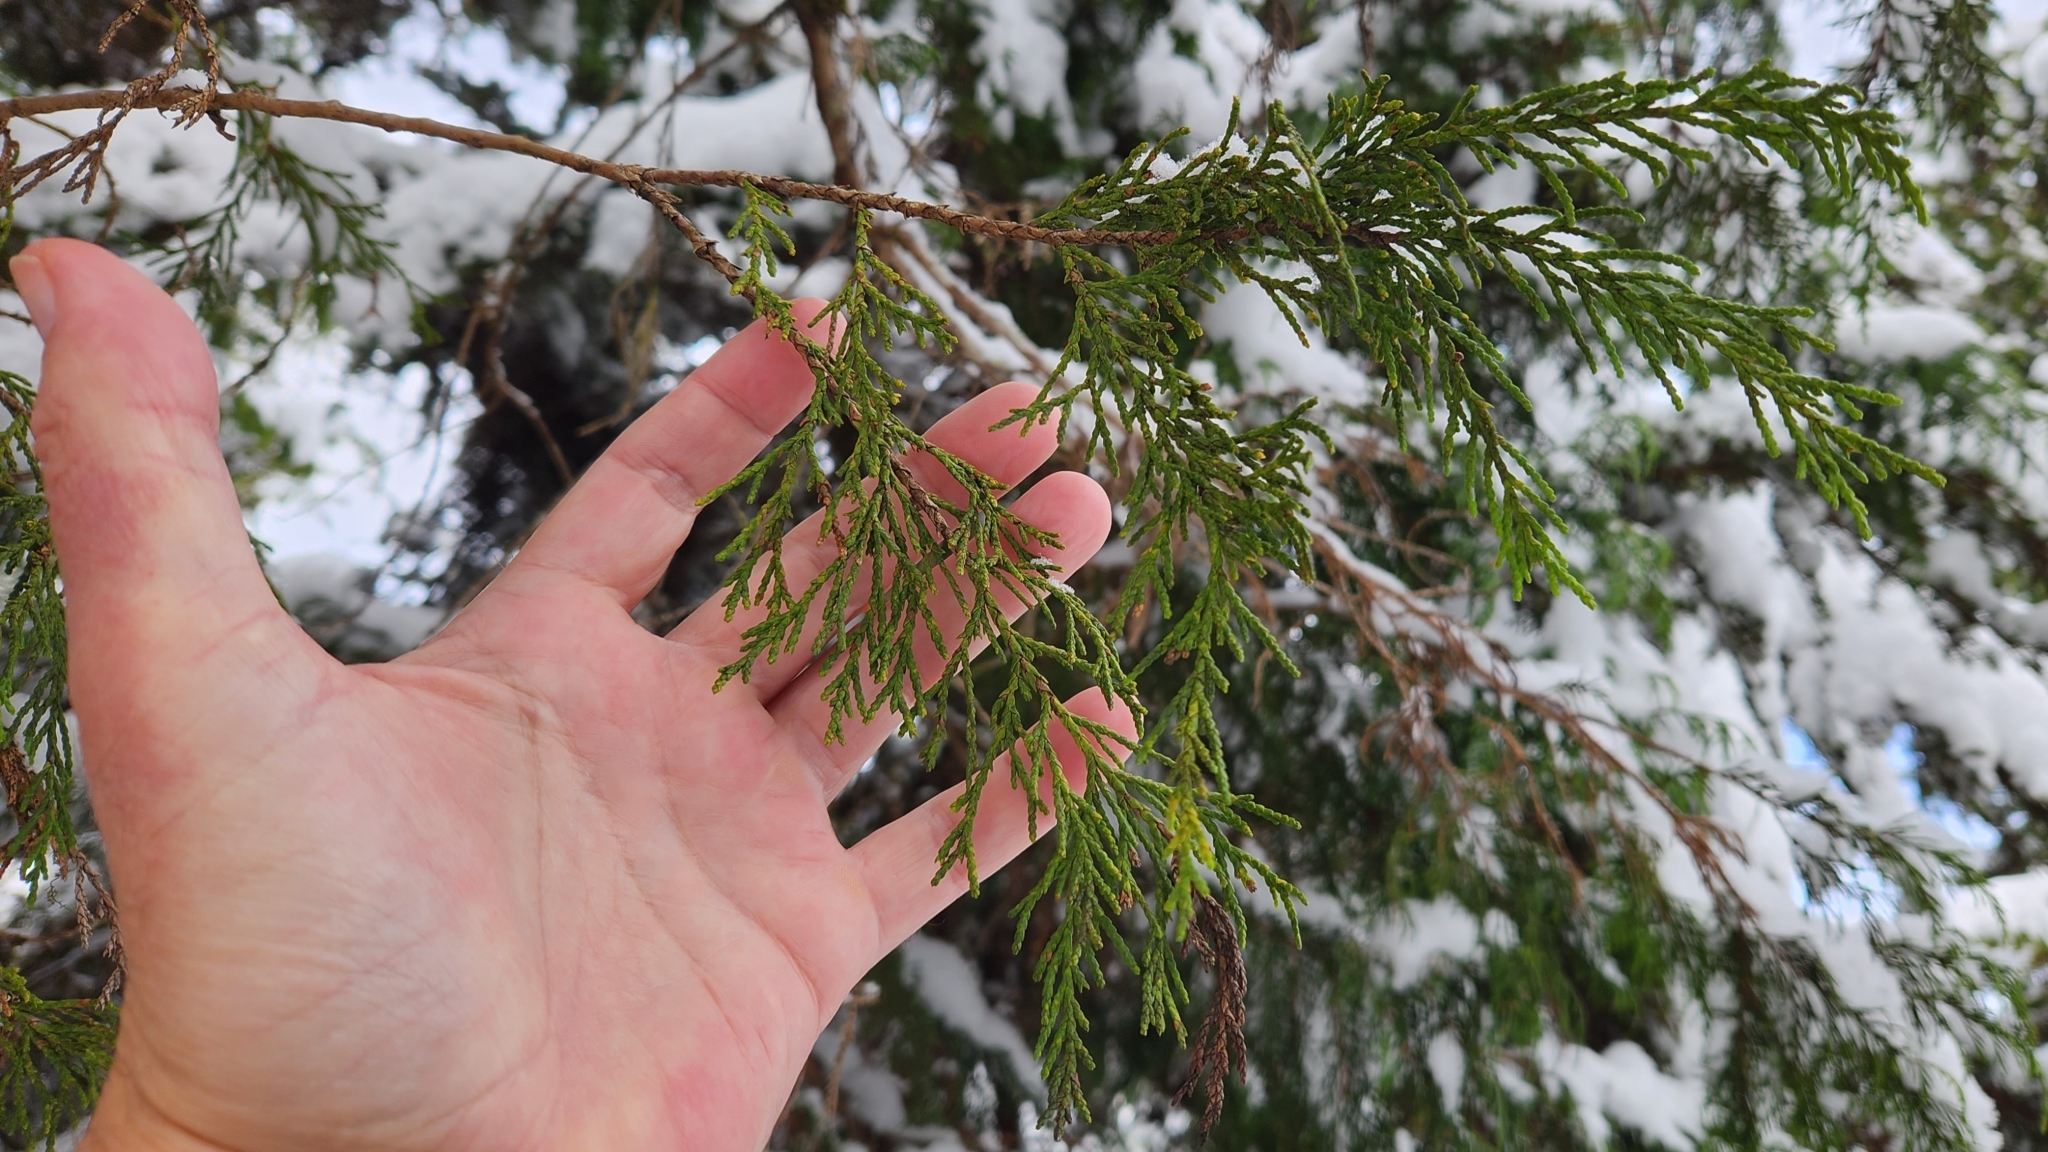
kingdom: Plantae
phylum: Tracheophyta
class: Pinopsida
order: Pinales
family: Cupressaceae
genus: Xanthocyparis
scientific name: Xanthocyparis nootkatensis
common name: Nootka cypress
